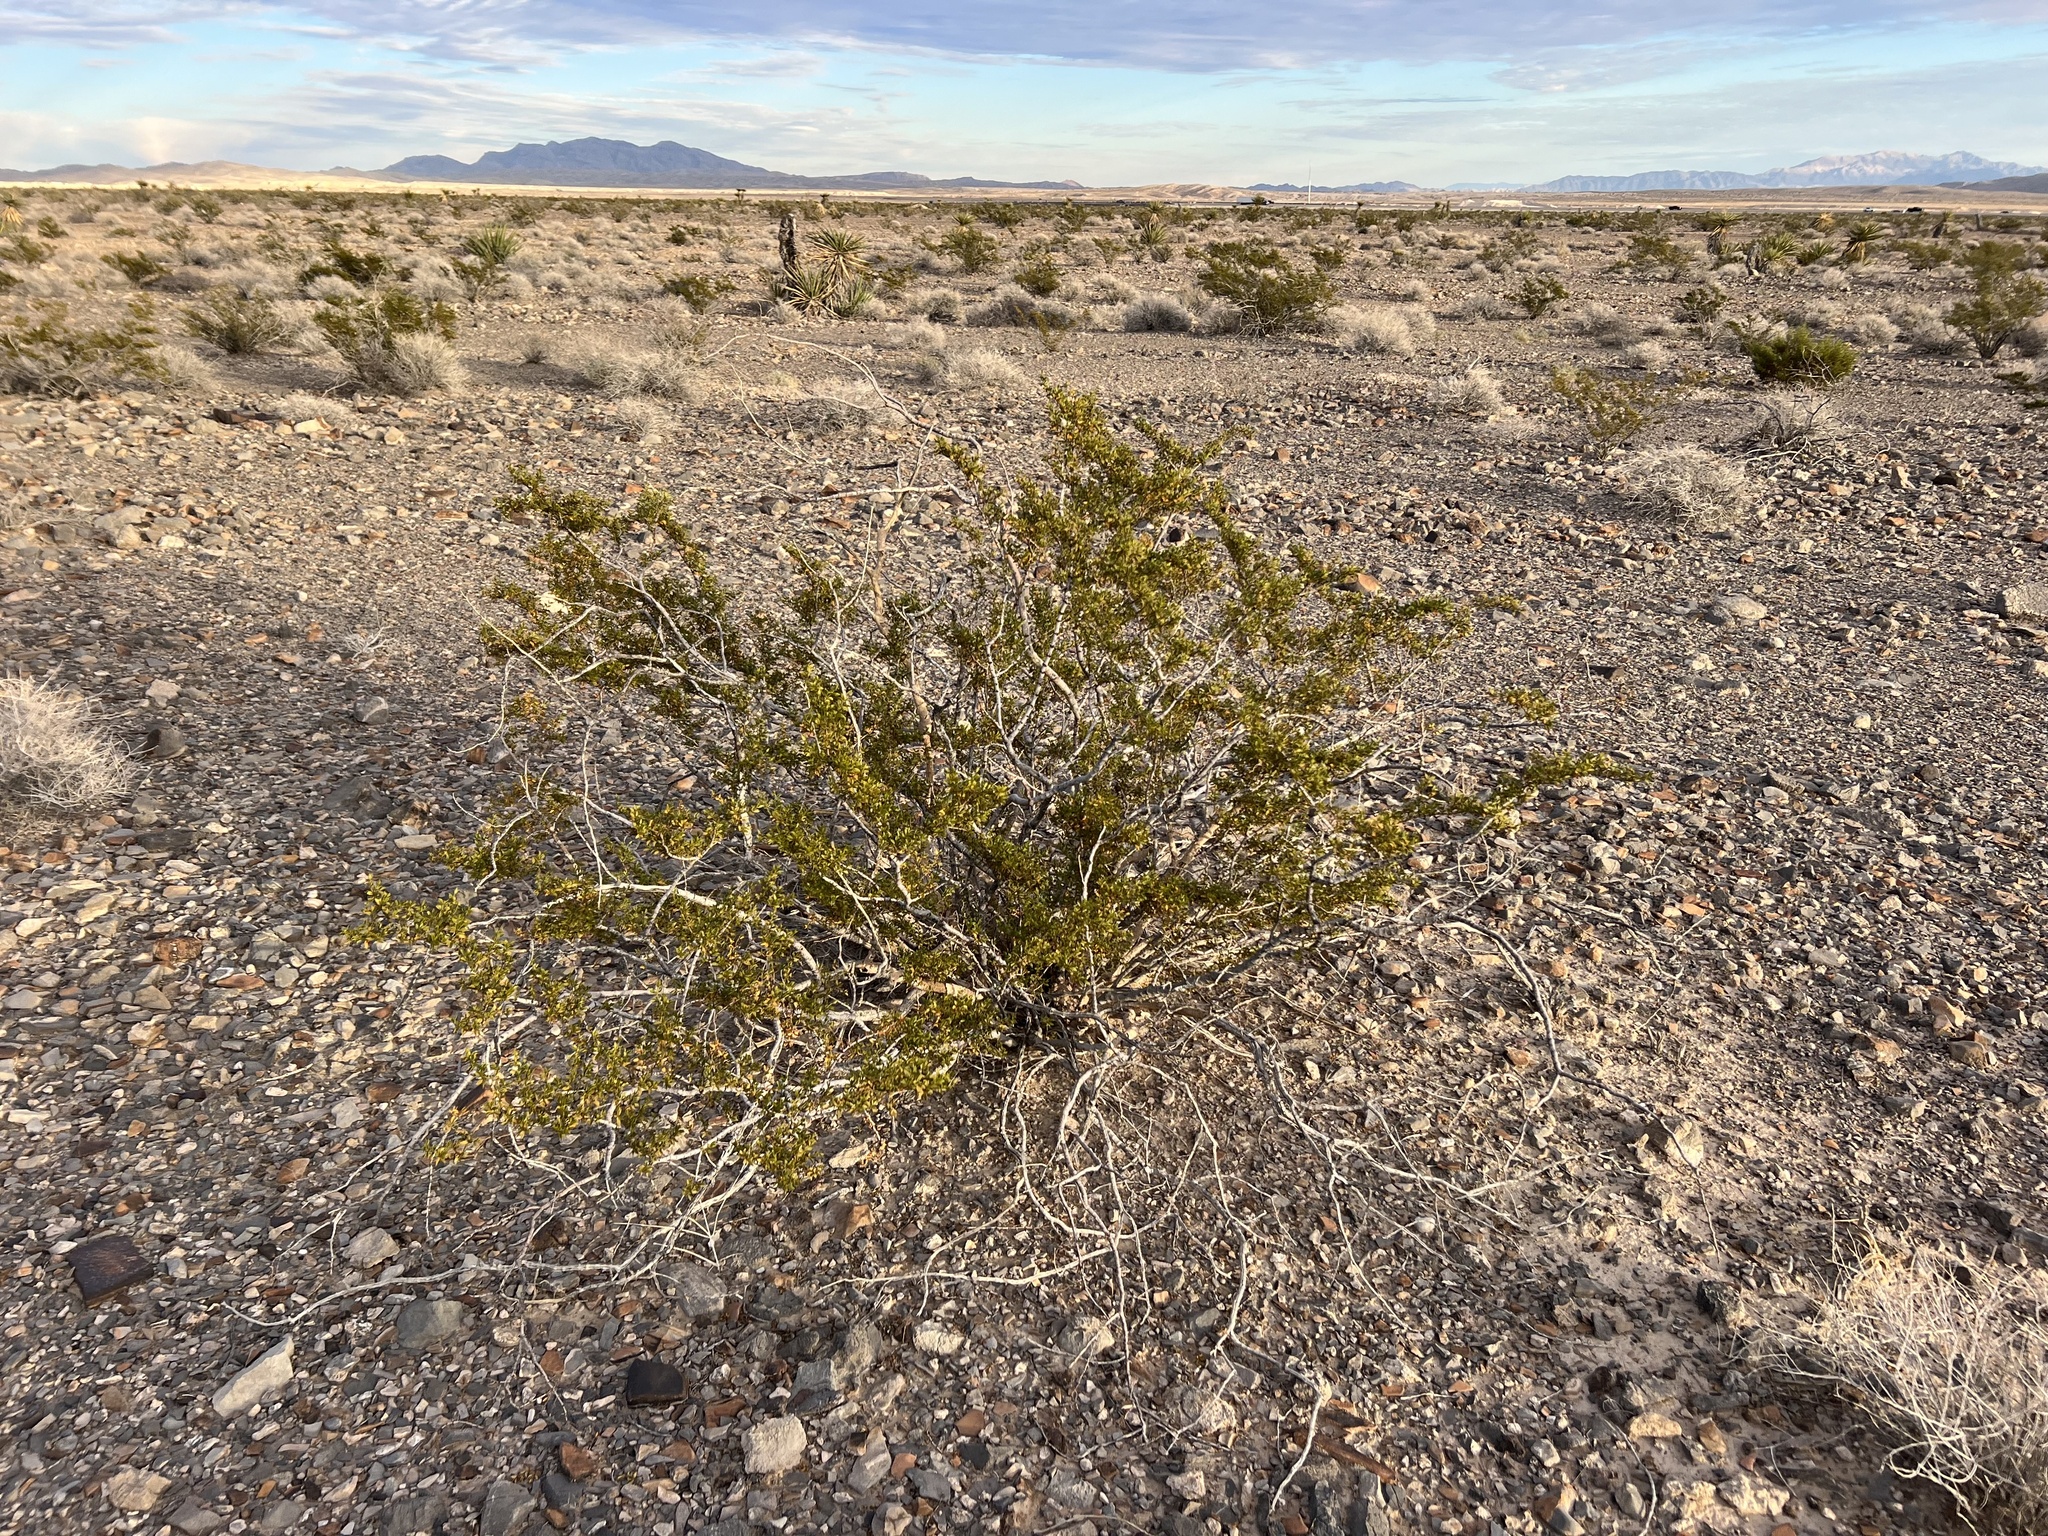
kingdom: Plantae
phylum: Tracheophyta
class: Magnoliopsida
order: Zygophyllales
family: Zygophyllaceae
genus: Larrea
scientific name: Larrea tridentata
